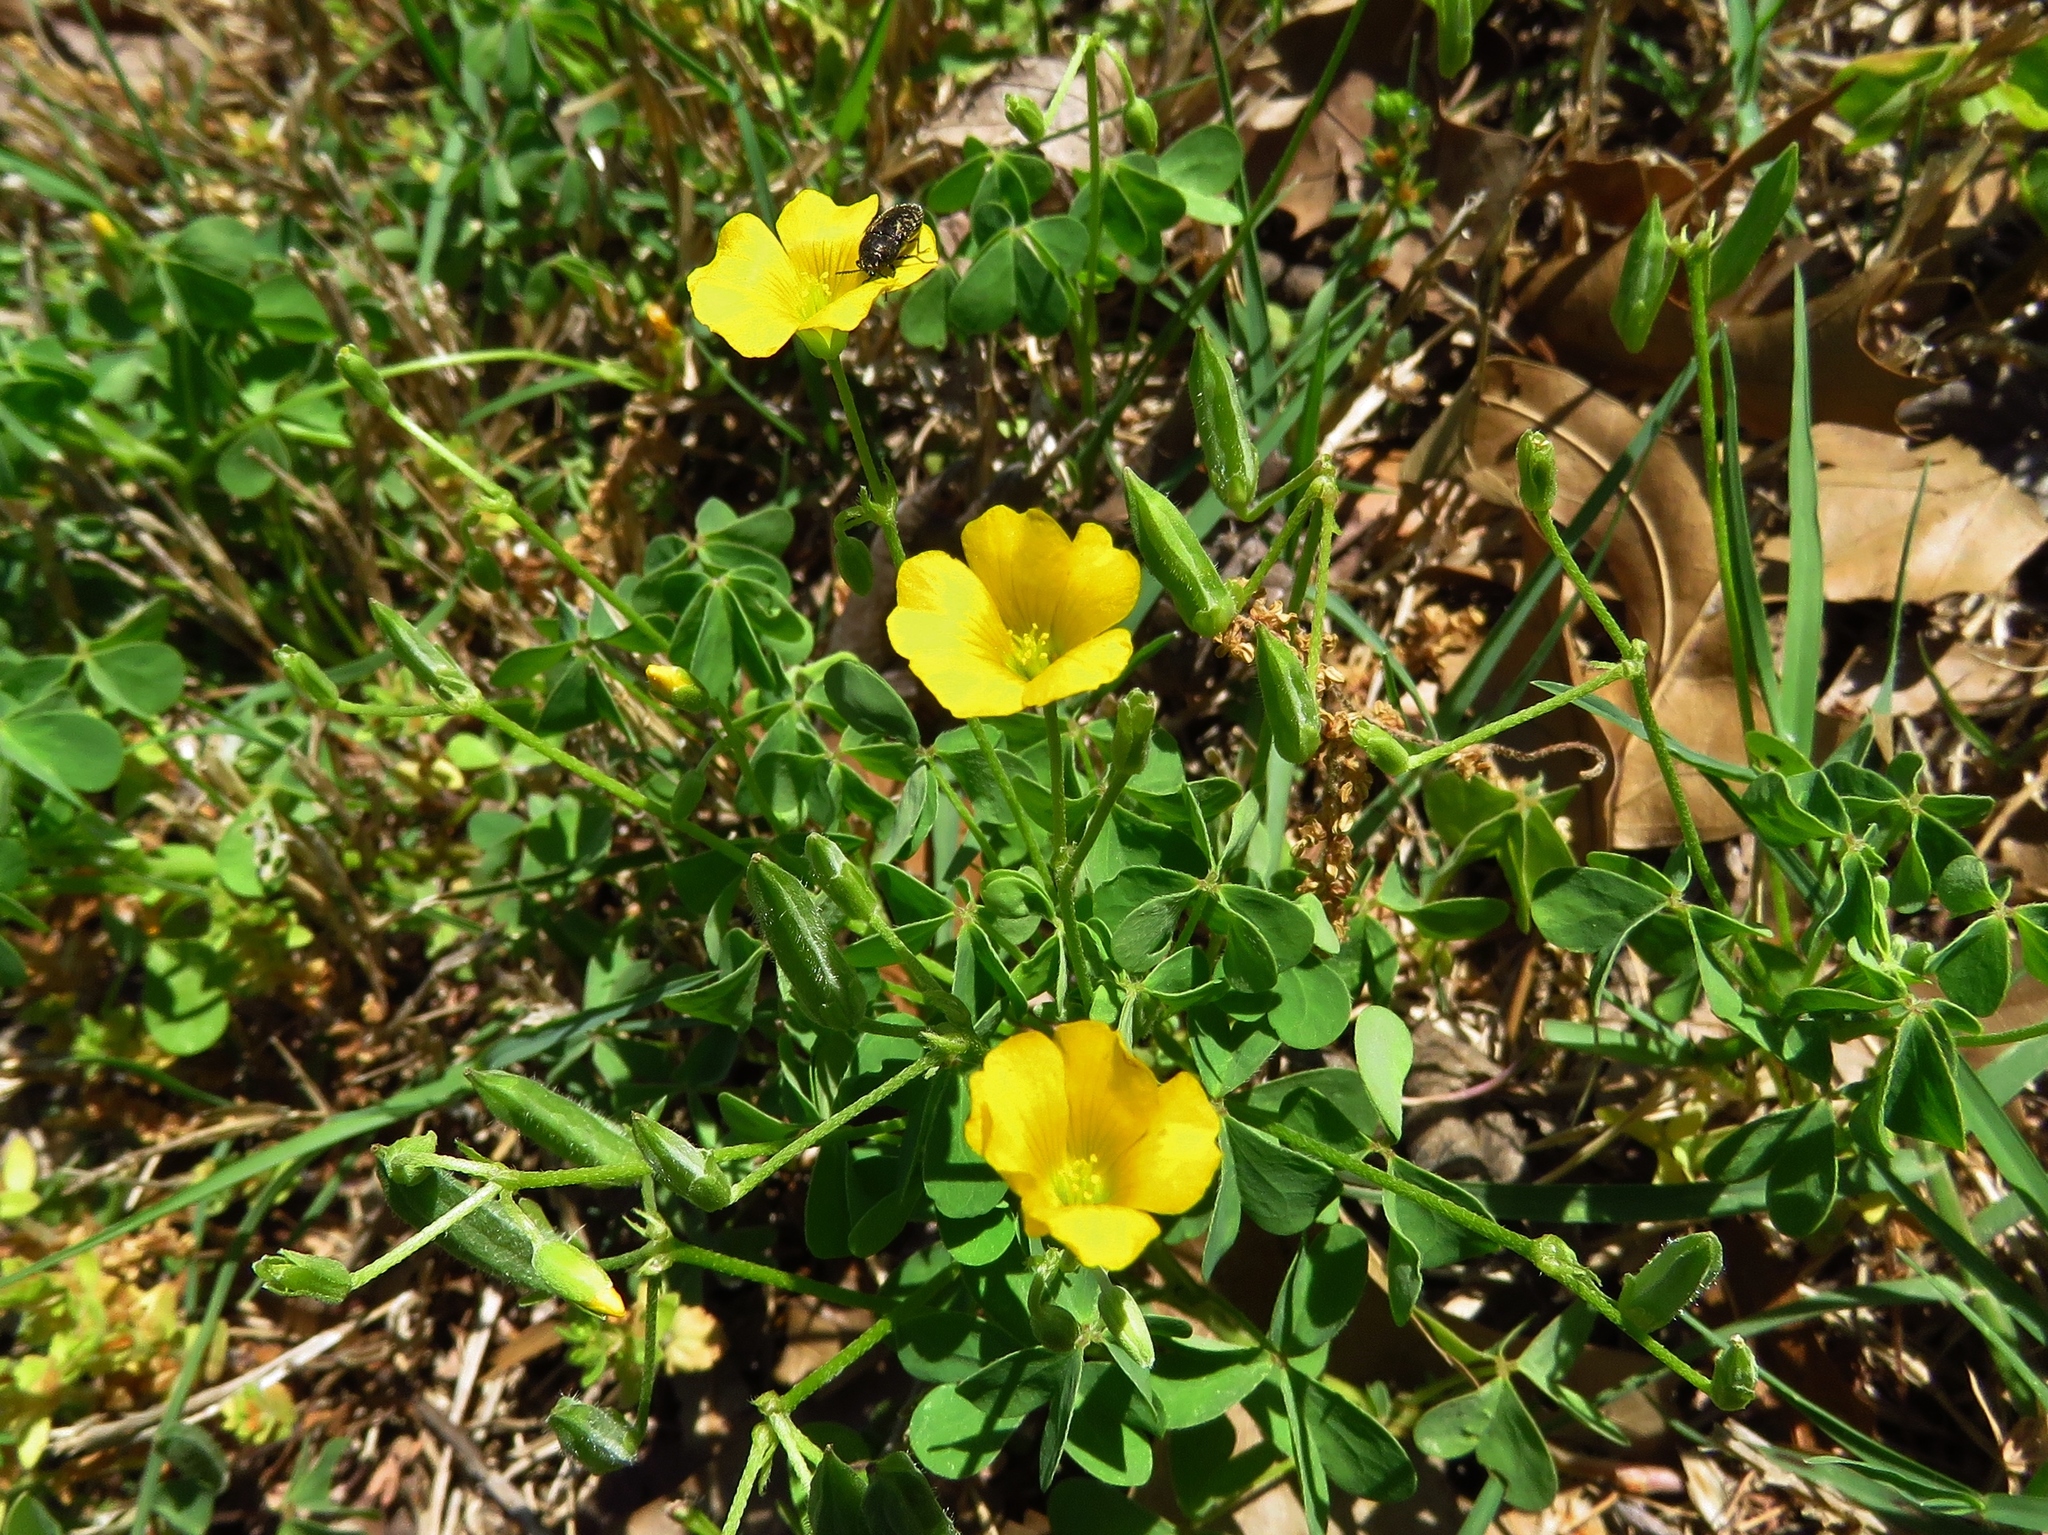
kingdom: Plantae
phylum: Tracheophyta
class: Magnoliopsida
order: Oxalidales
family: Oxalidaceae
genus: Oxalis
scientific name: Oxalis dillenii
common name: Sussex yellow-sorrel
